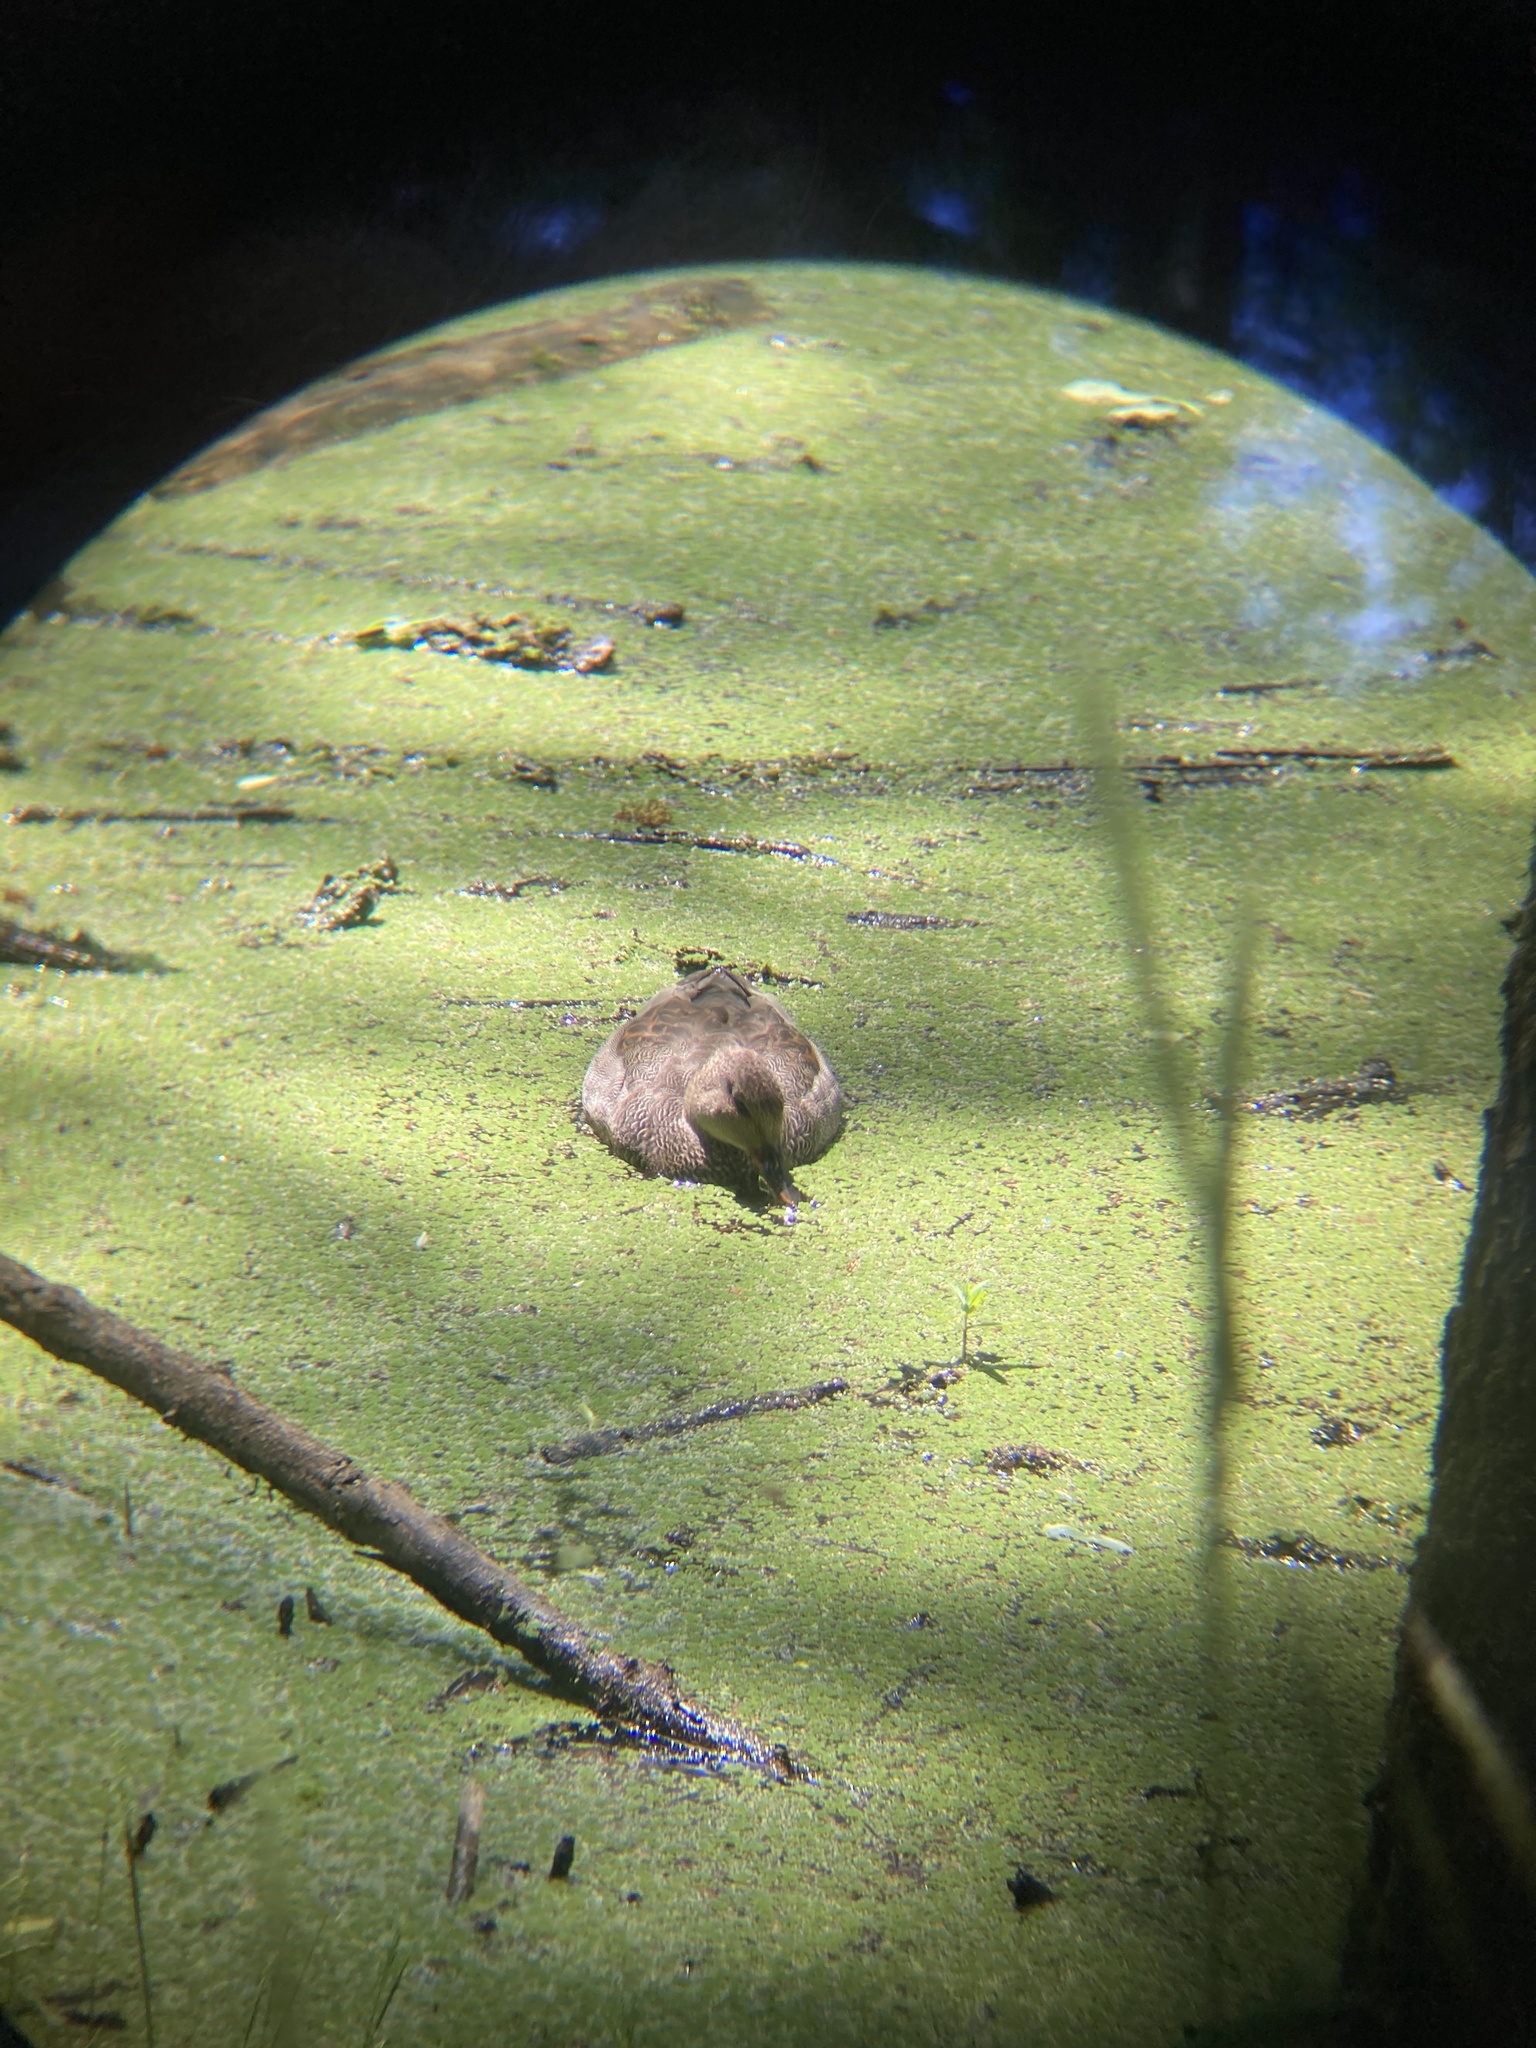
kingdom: Animalia
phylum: Chordata
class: Aves
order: Anseriformes
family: Anatidae
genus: Mareca
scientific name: Mareca strepera
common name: Gadwall
